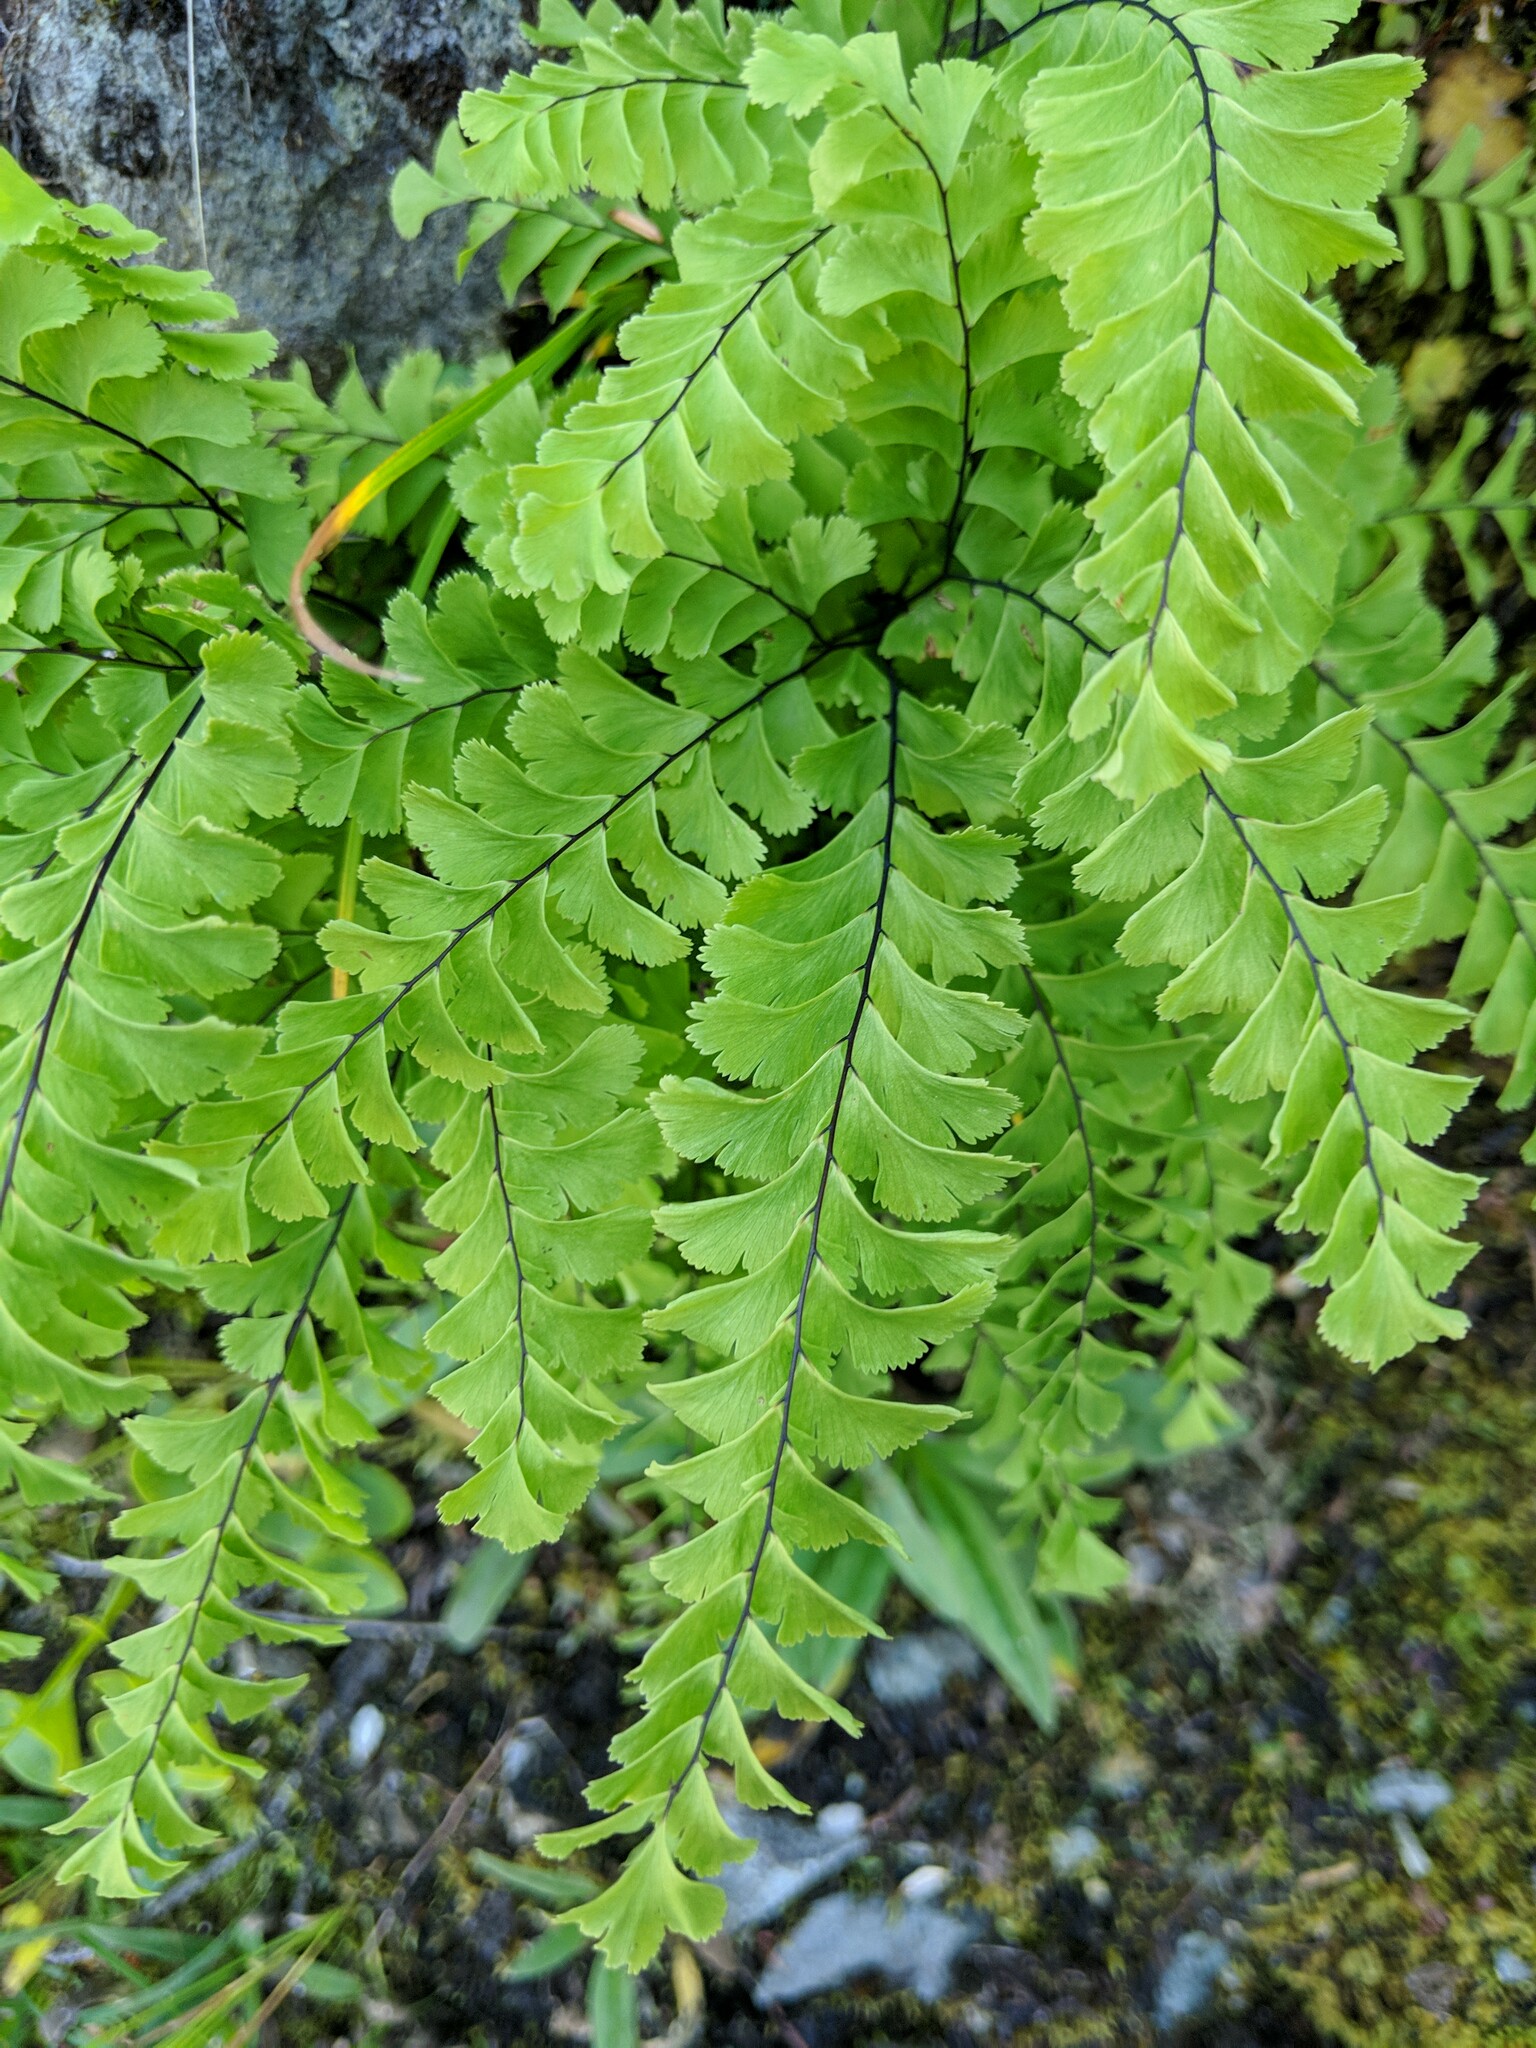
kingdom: Plantae
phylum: Tracheophyta
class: Polypodiopsida
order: Polypodiales
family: Pteridaceae
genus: Adiantum
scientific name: Adiantum aleuticum
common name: Aleutian maidenhair fern
